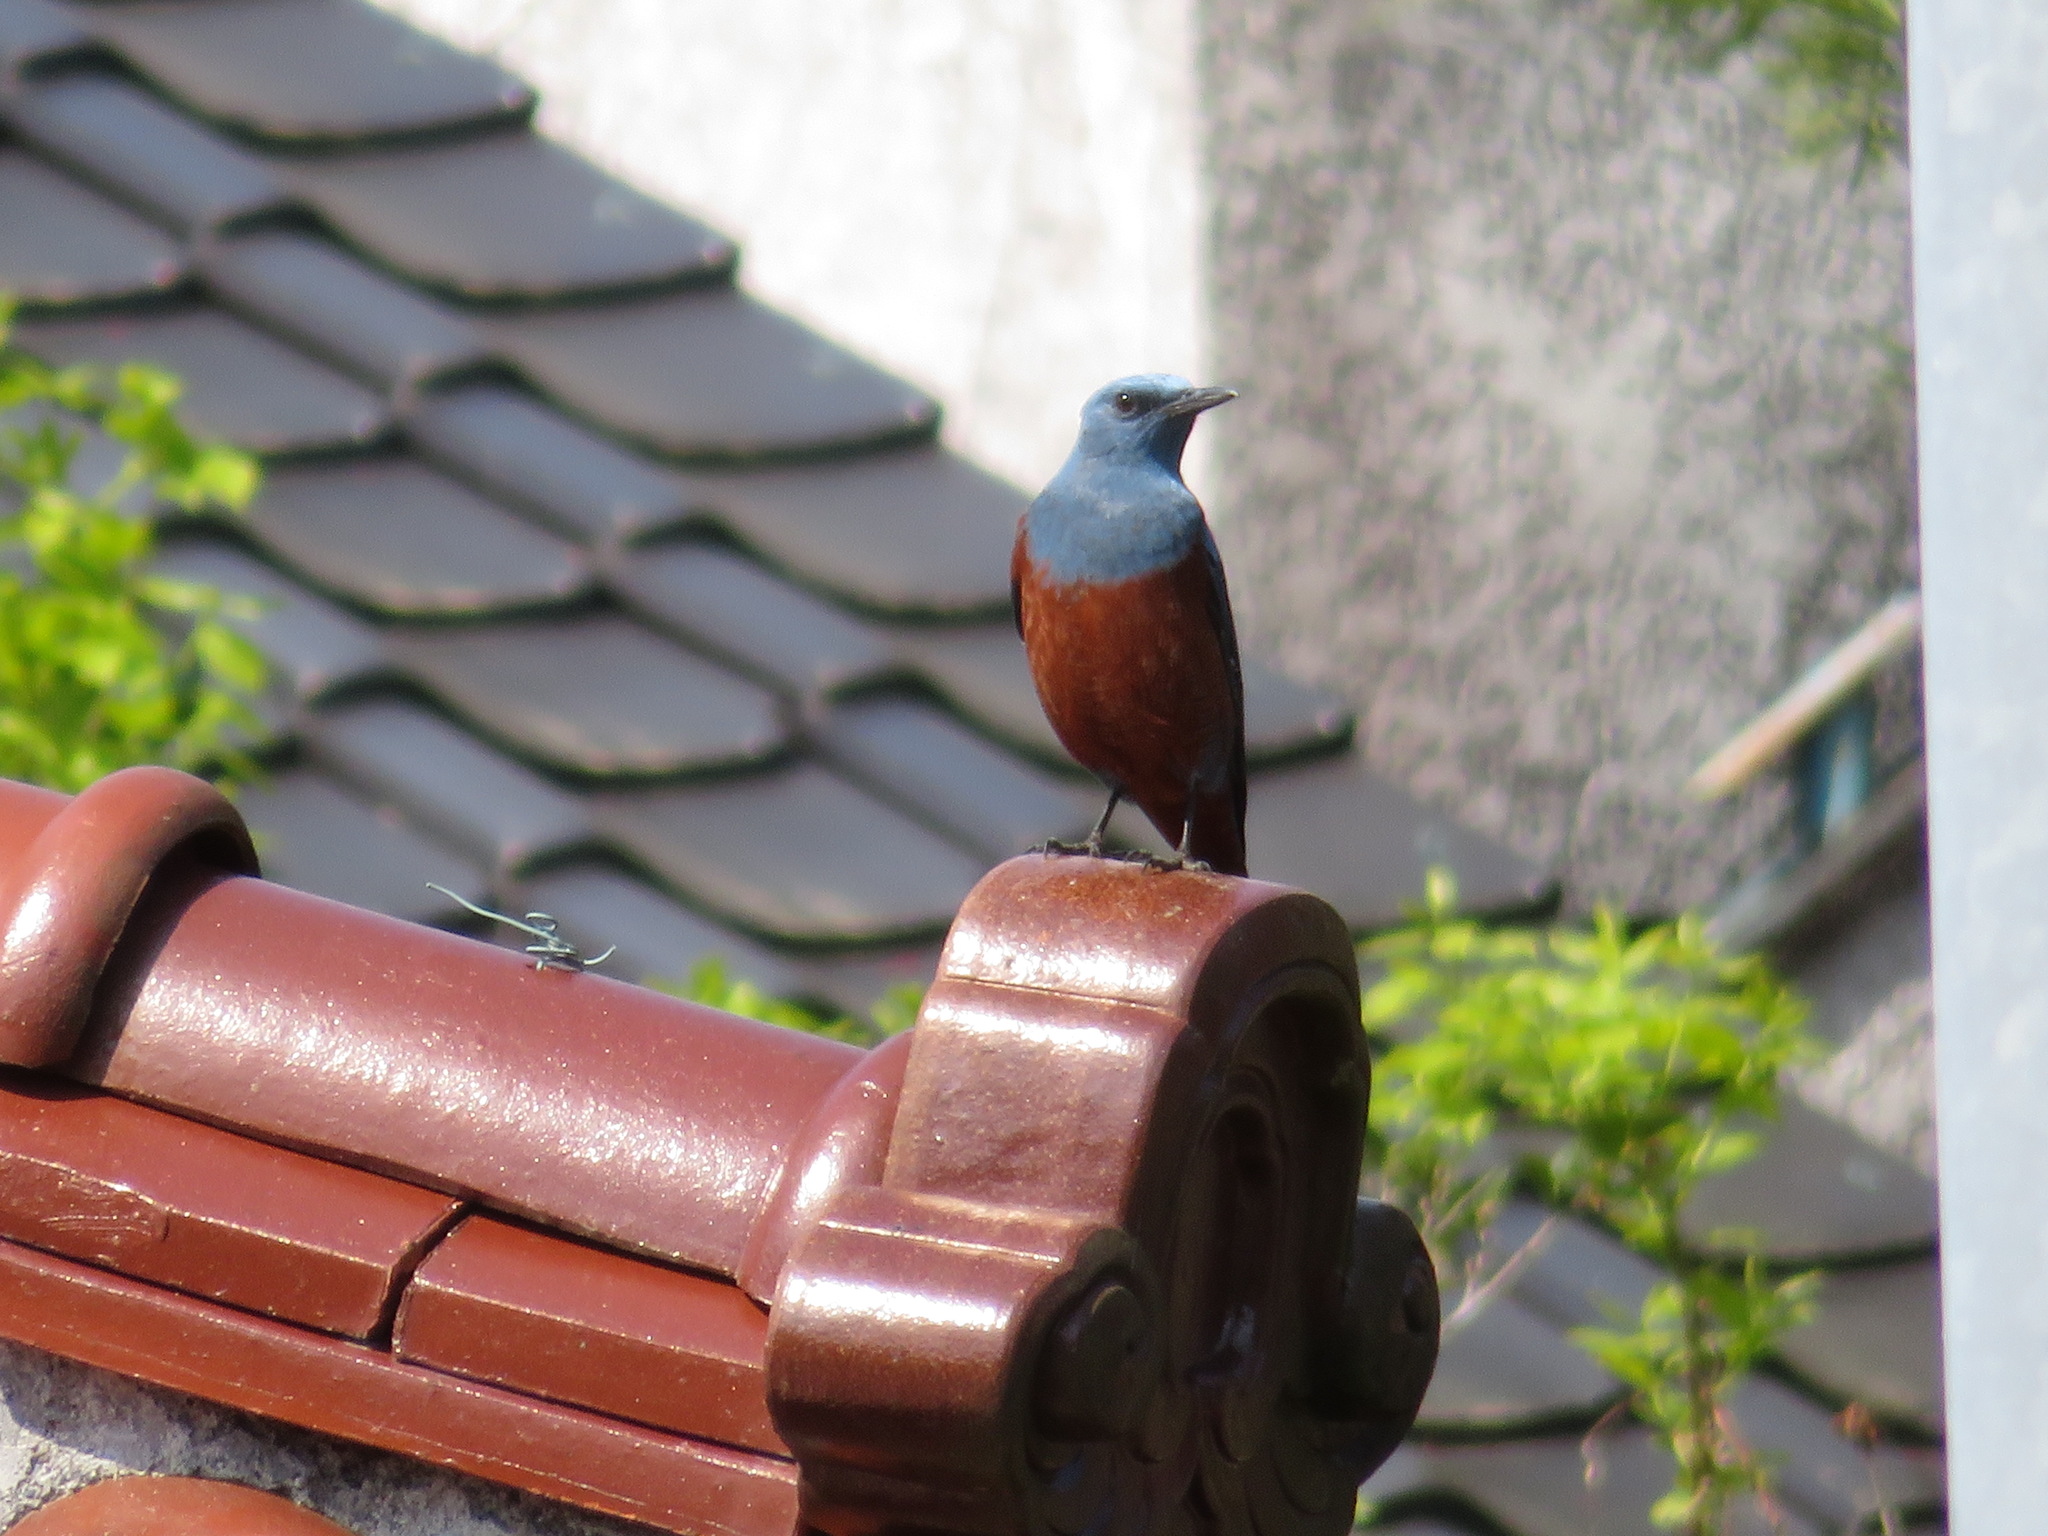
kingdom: Animalia
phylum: Chordata
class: Aves
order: Passeriformes
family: Muscicapidae
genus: Monticola
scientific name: Monticola solitarius
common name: Blue rock thrush
